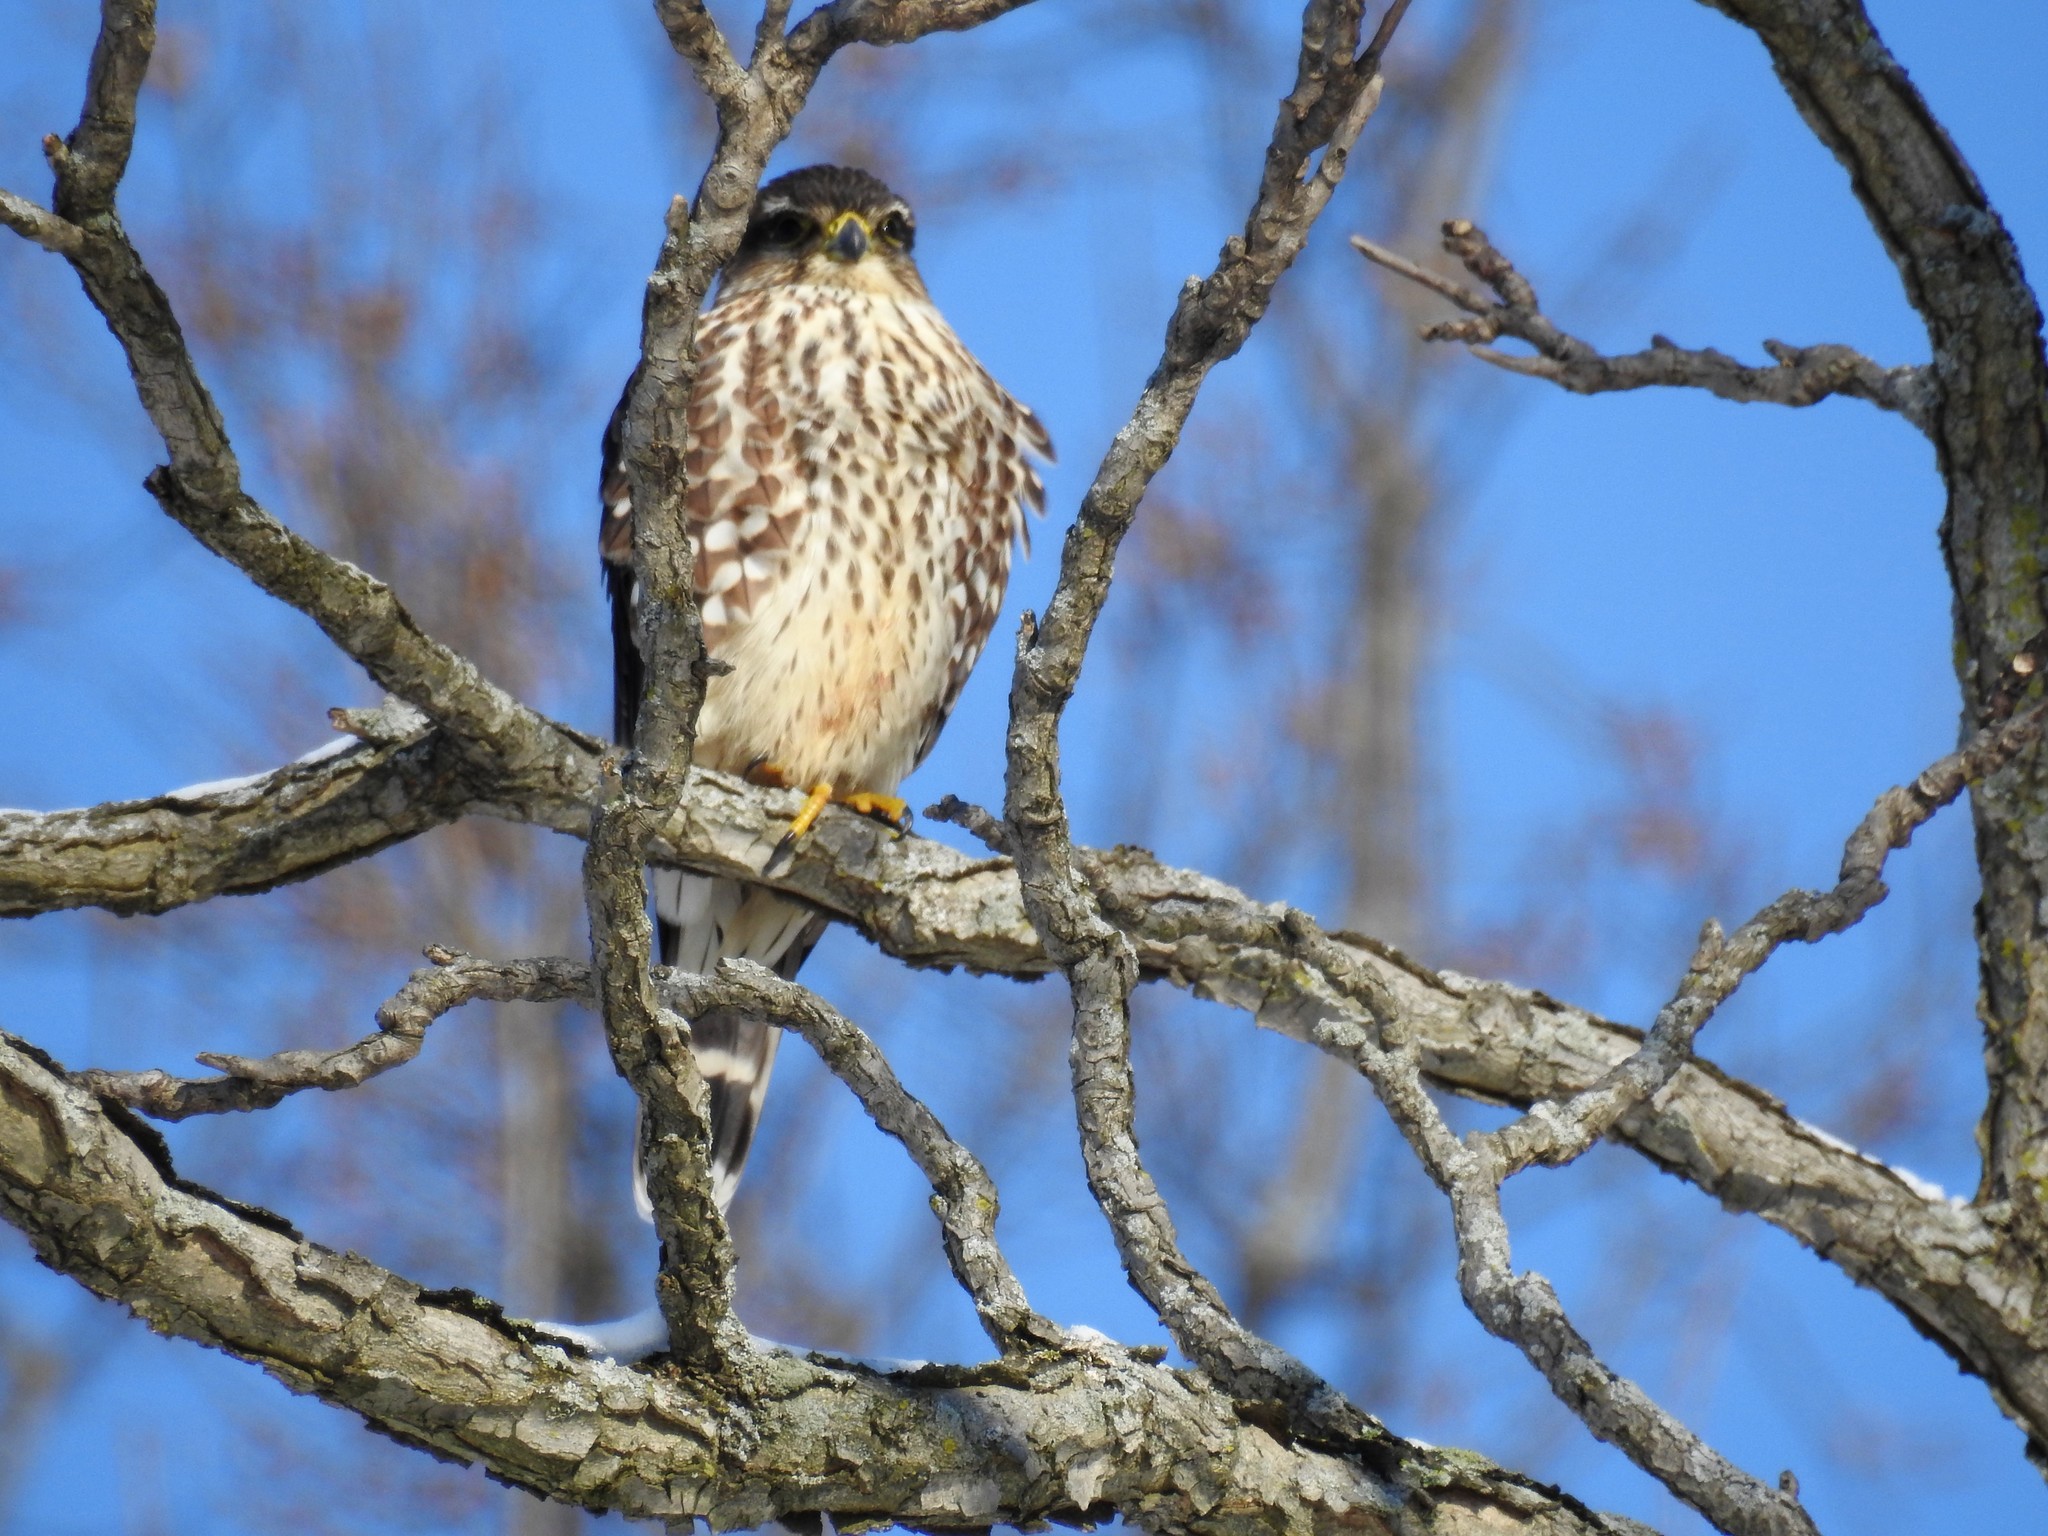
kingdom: Animalia
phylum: Chordata
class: Aves
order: Falconiformes
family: Falconidae
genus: Falco
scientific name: Falco columbarius
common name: Merlin
